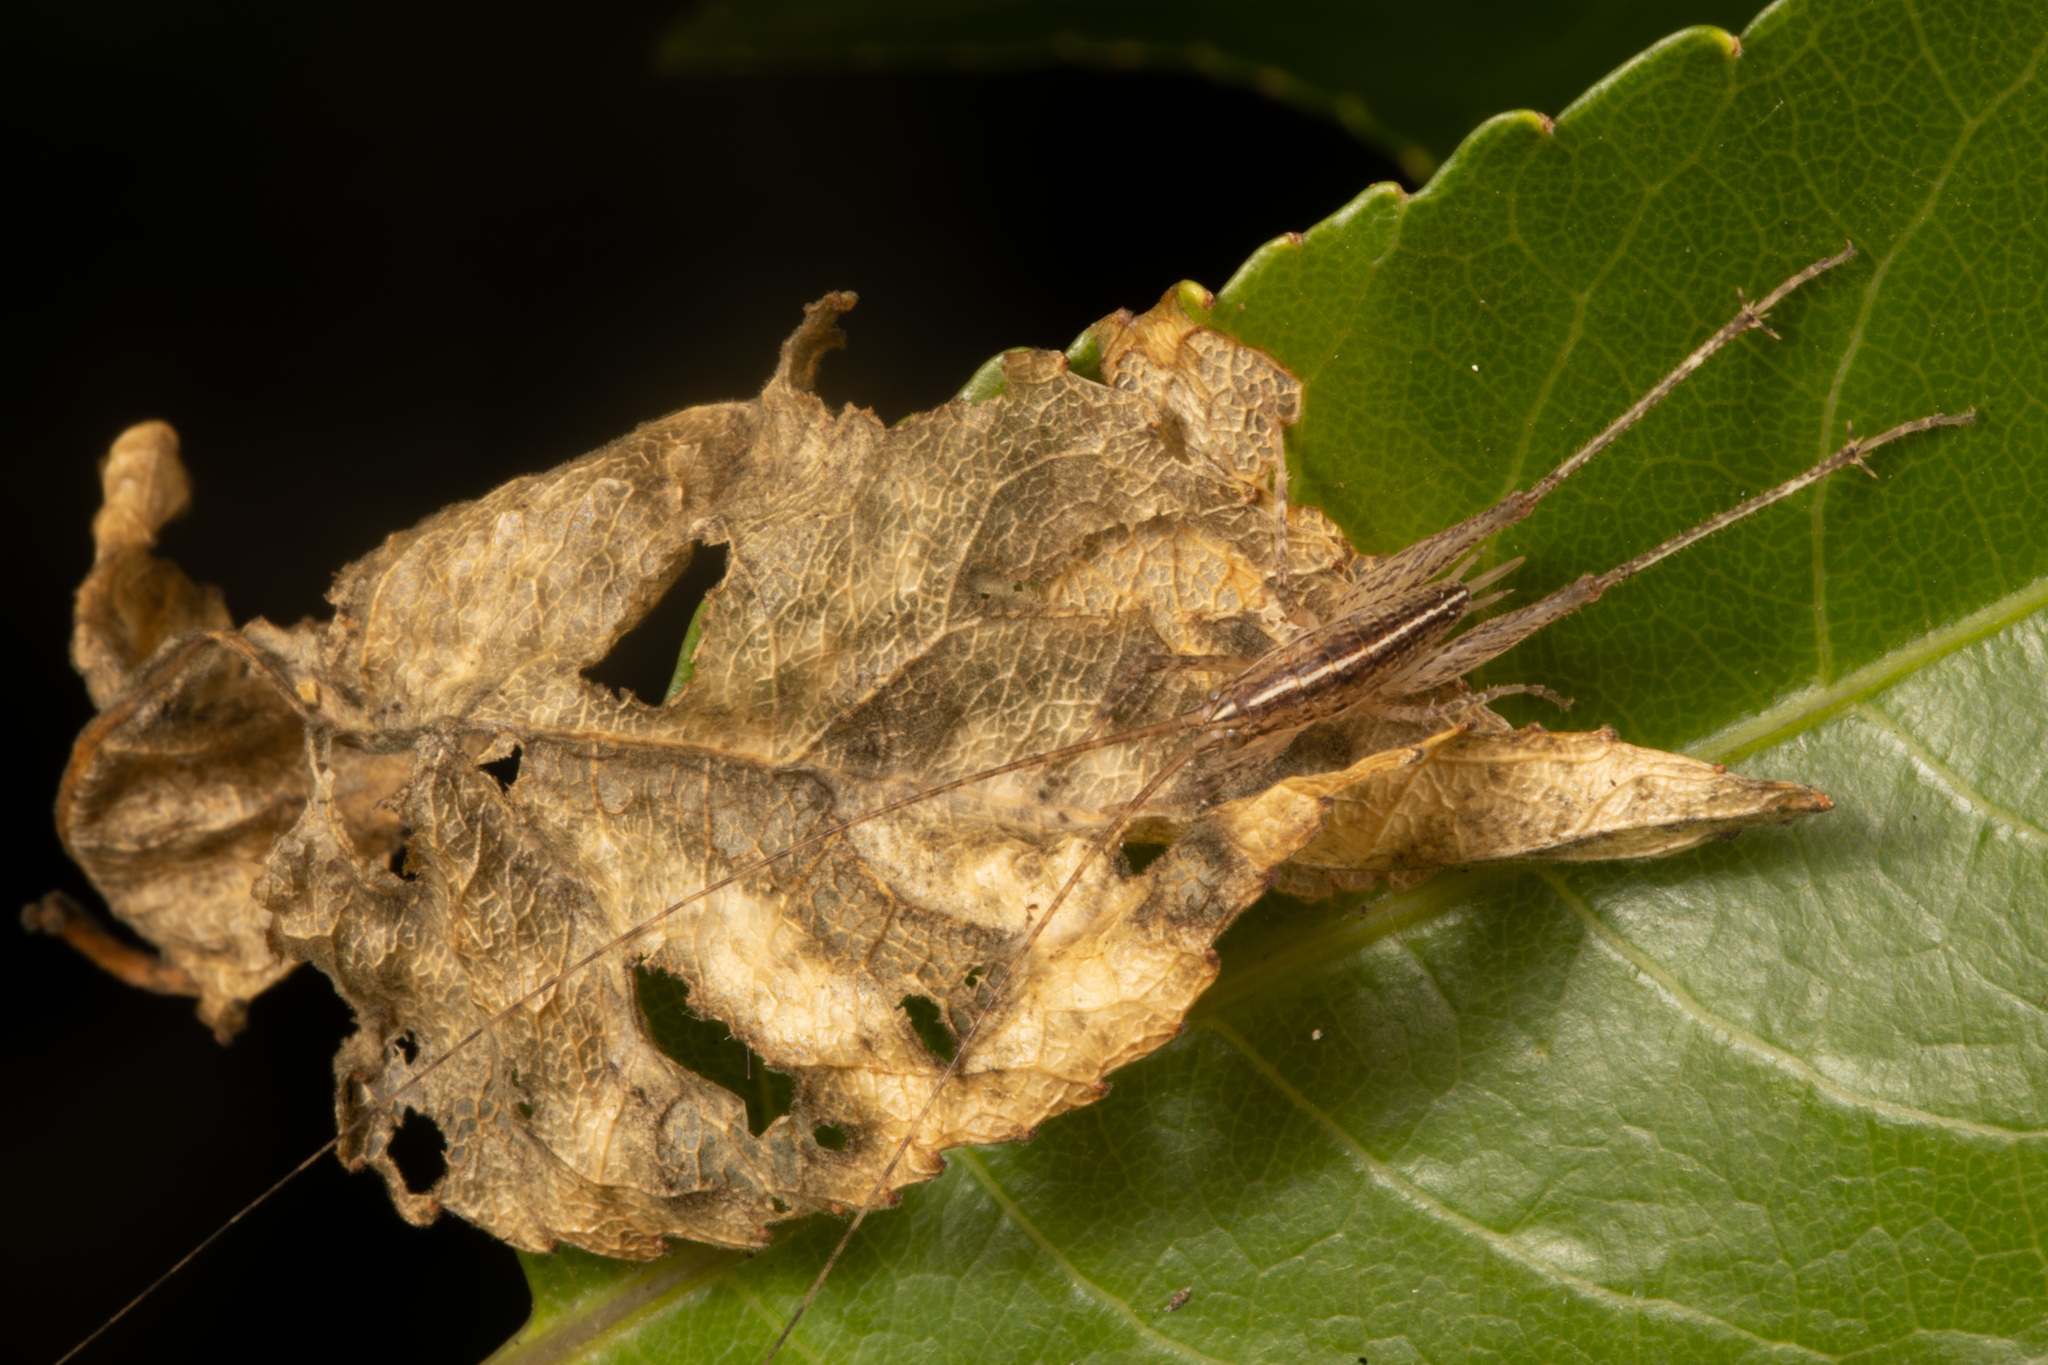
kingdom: Animalia
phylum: Arthropoda
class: Insecta
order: Orthoptera
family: Rhaphidophoridae
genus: Talitropsis
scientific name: Talitropsis poduroides
